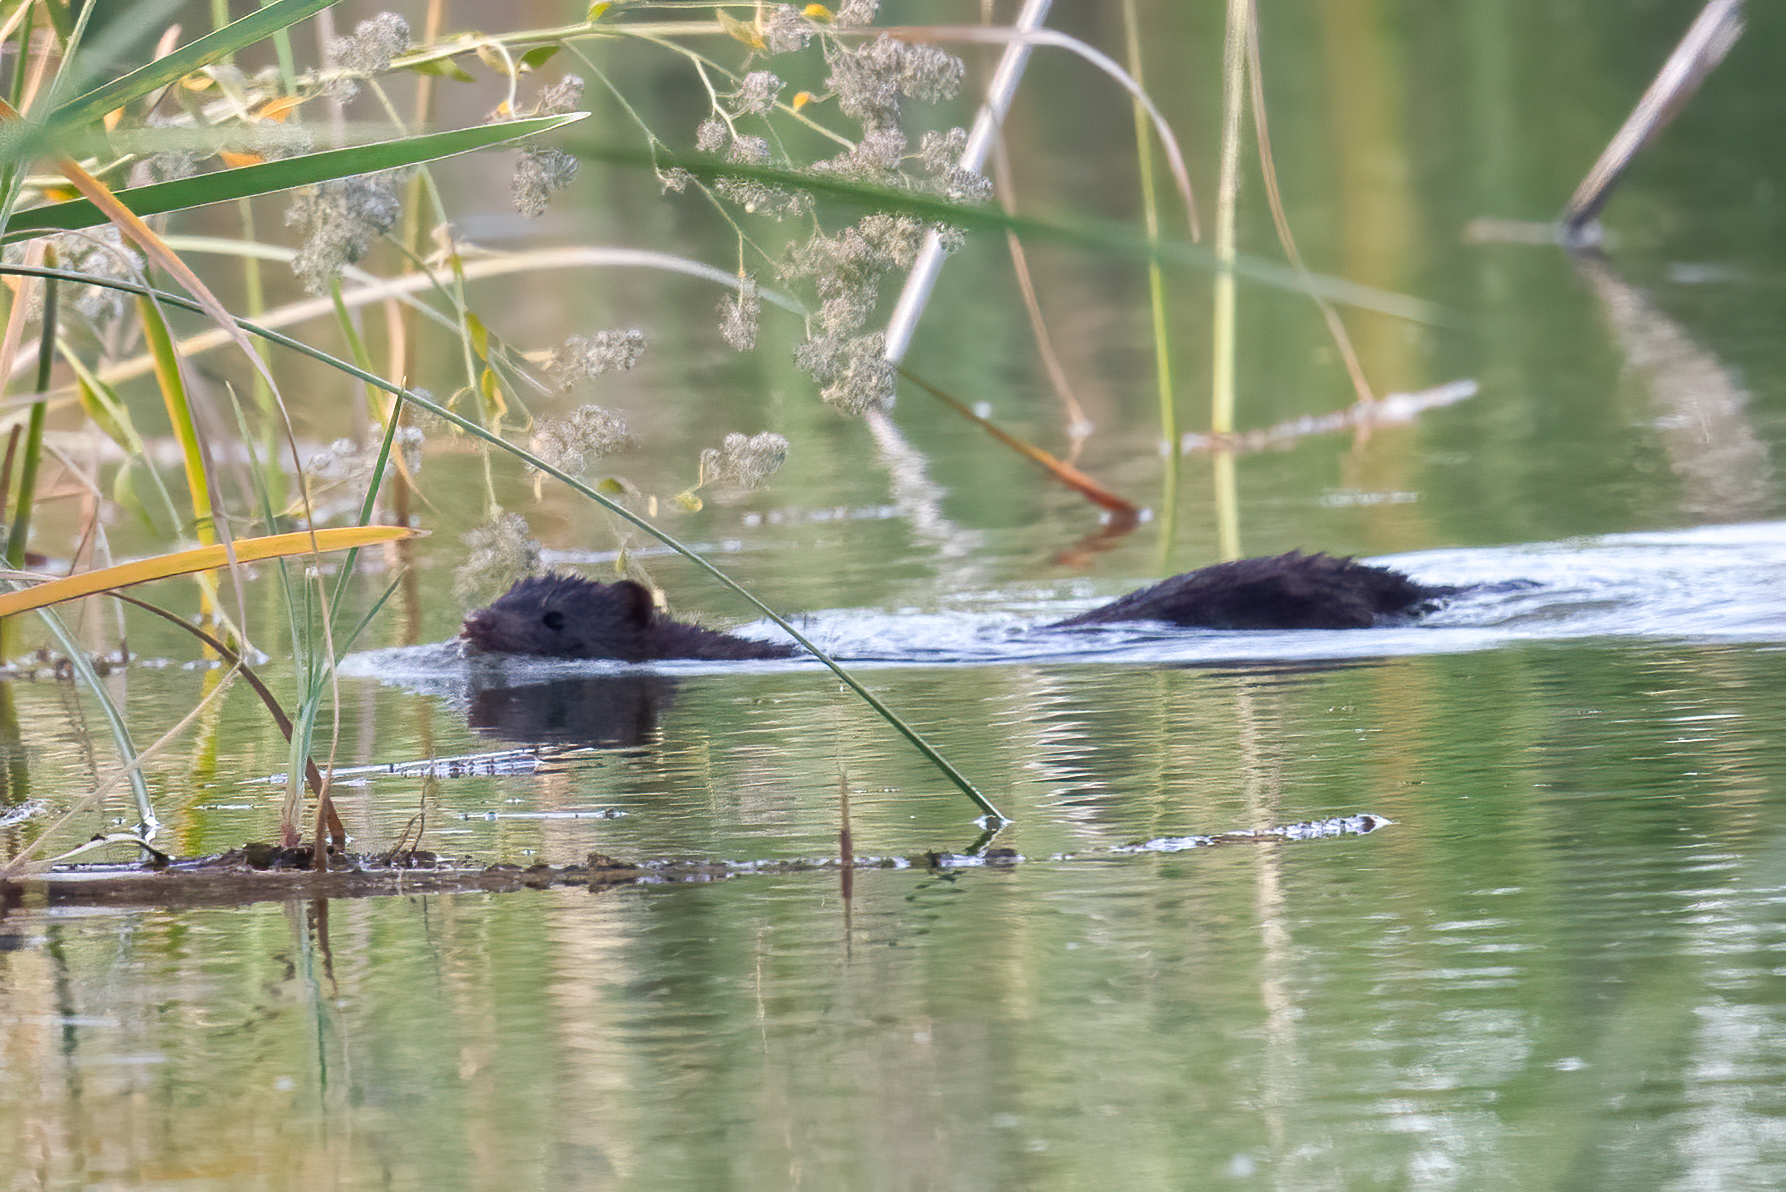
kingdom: Animalia
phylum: Chordata
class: Mammalia
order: Carnivora
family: Mustelidae
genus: Mustela
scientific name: Mustela
